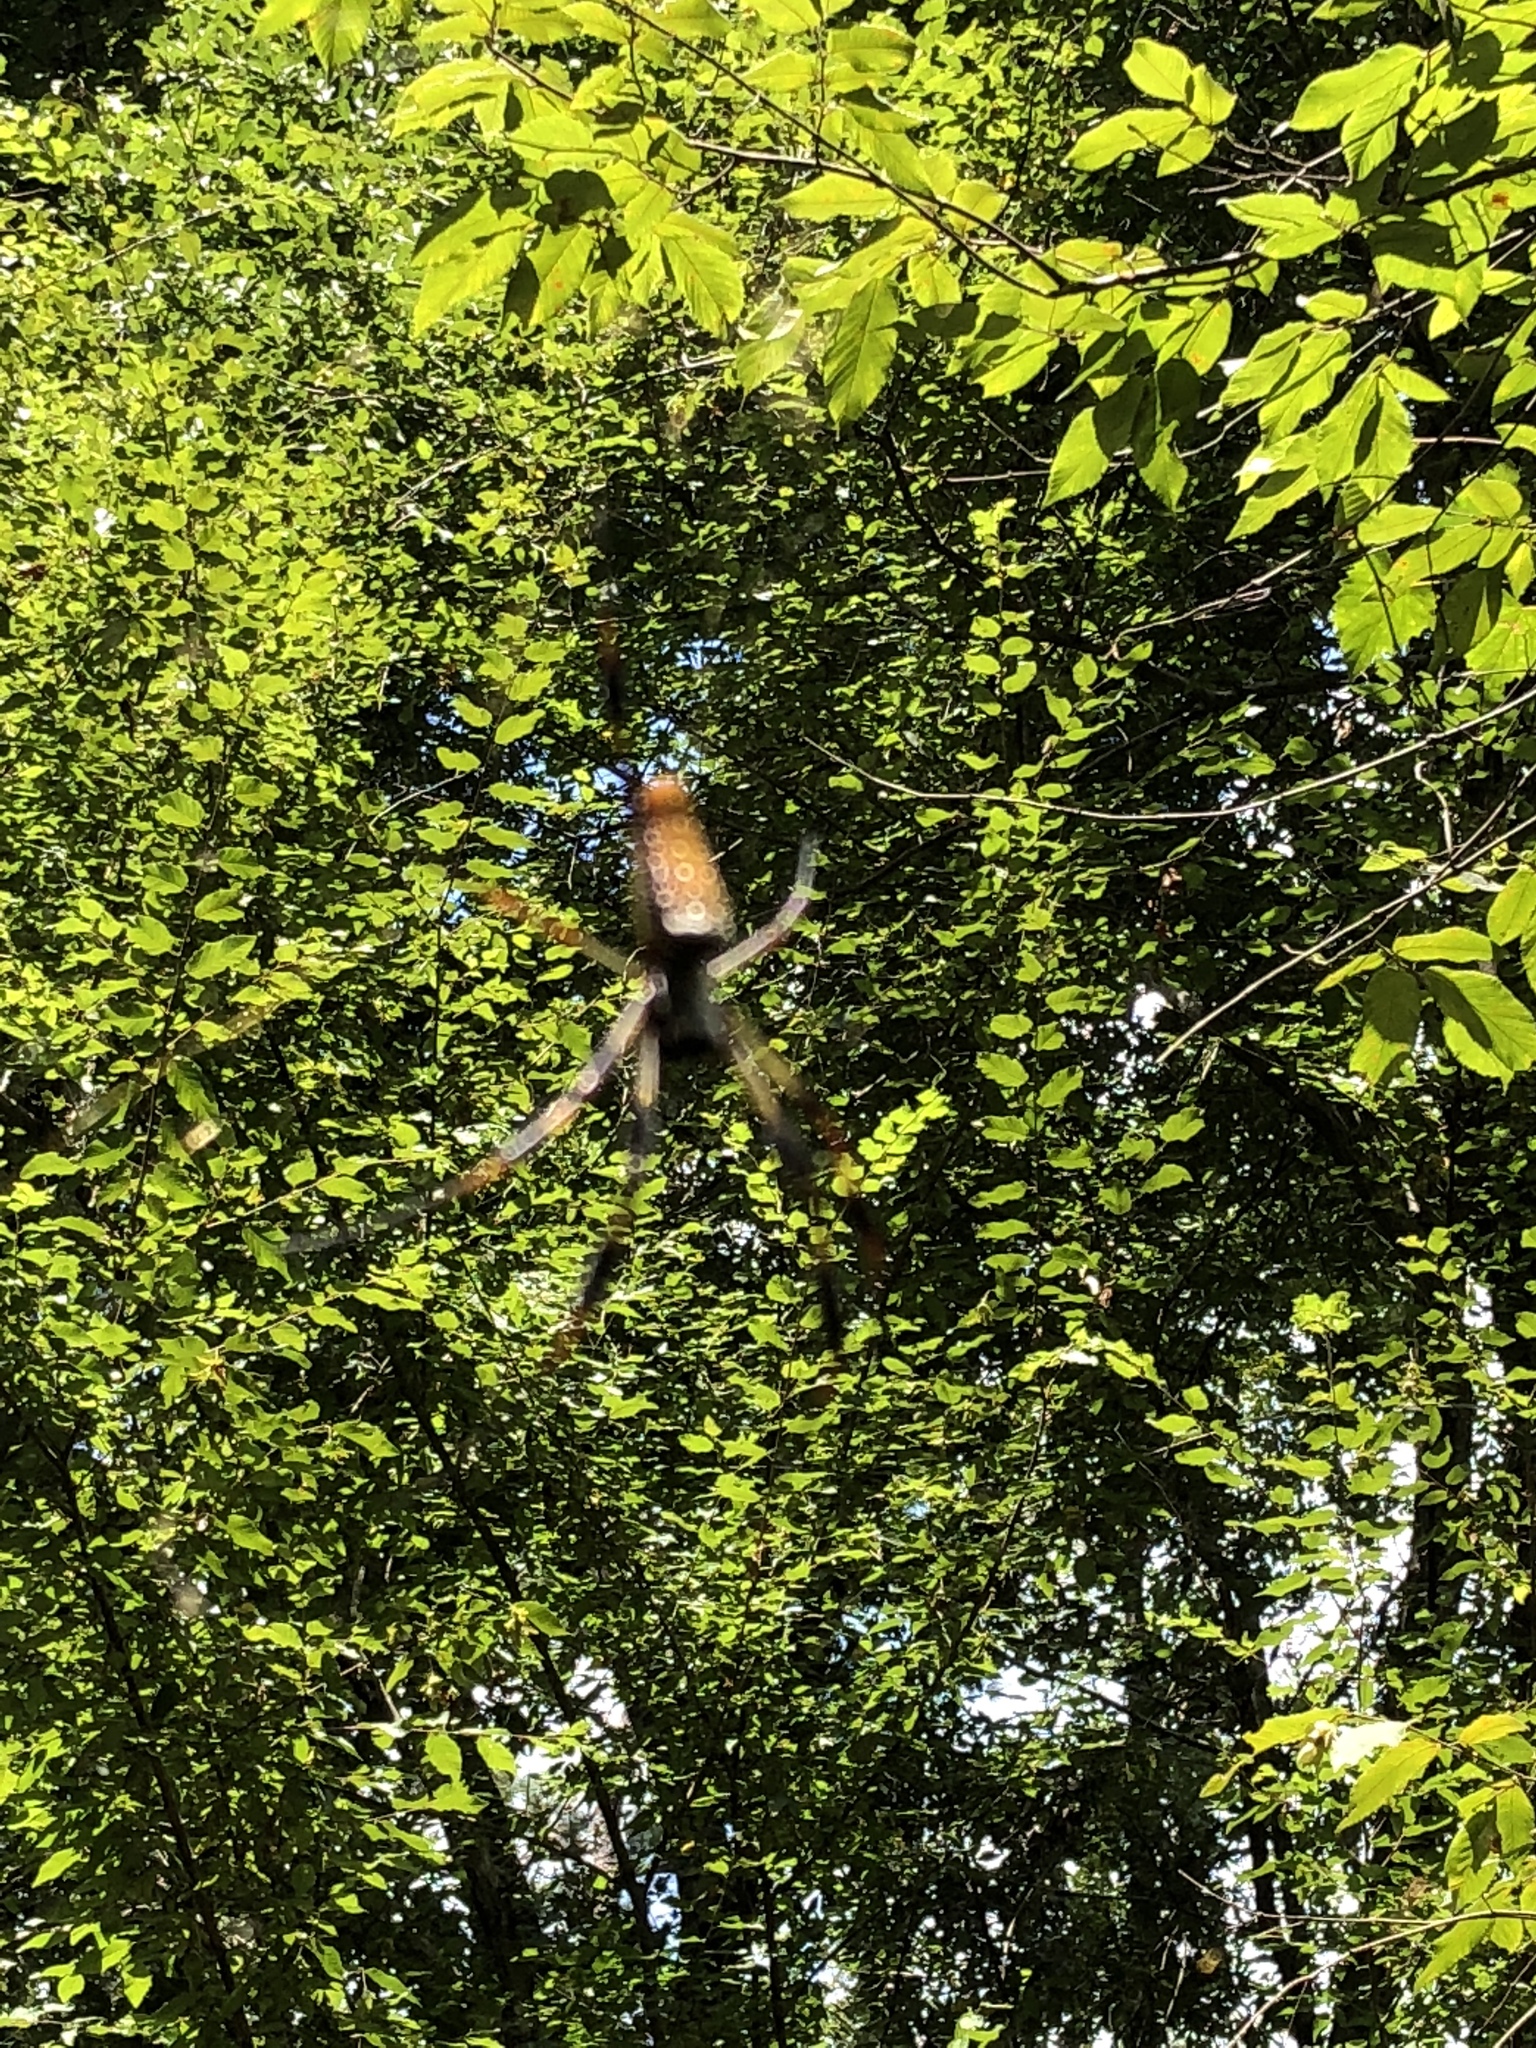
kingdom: Animalia
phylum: Arthropoda
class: Arachnida
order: Araneae
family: Araneidae
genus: Trichonephila
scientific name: Trichonephila clavipes
